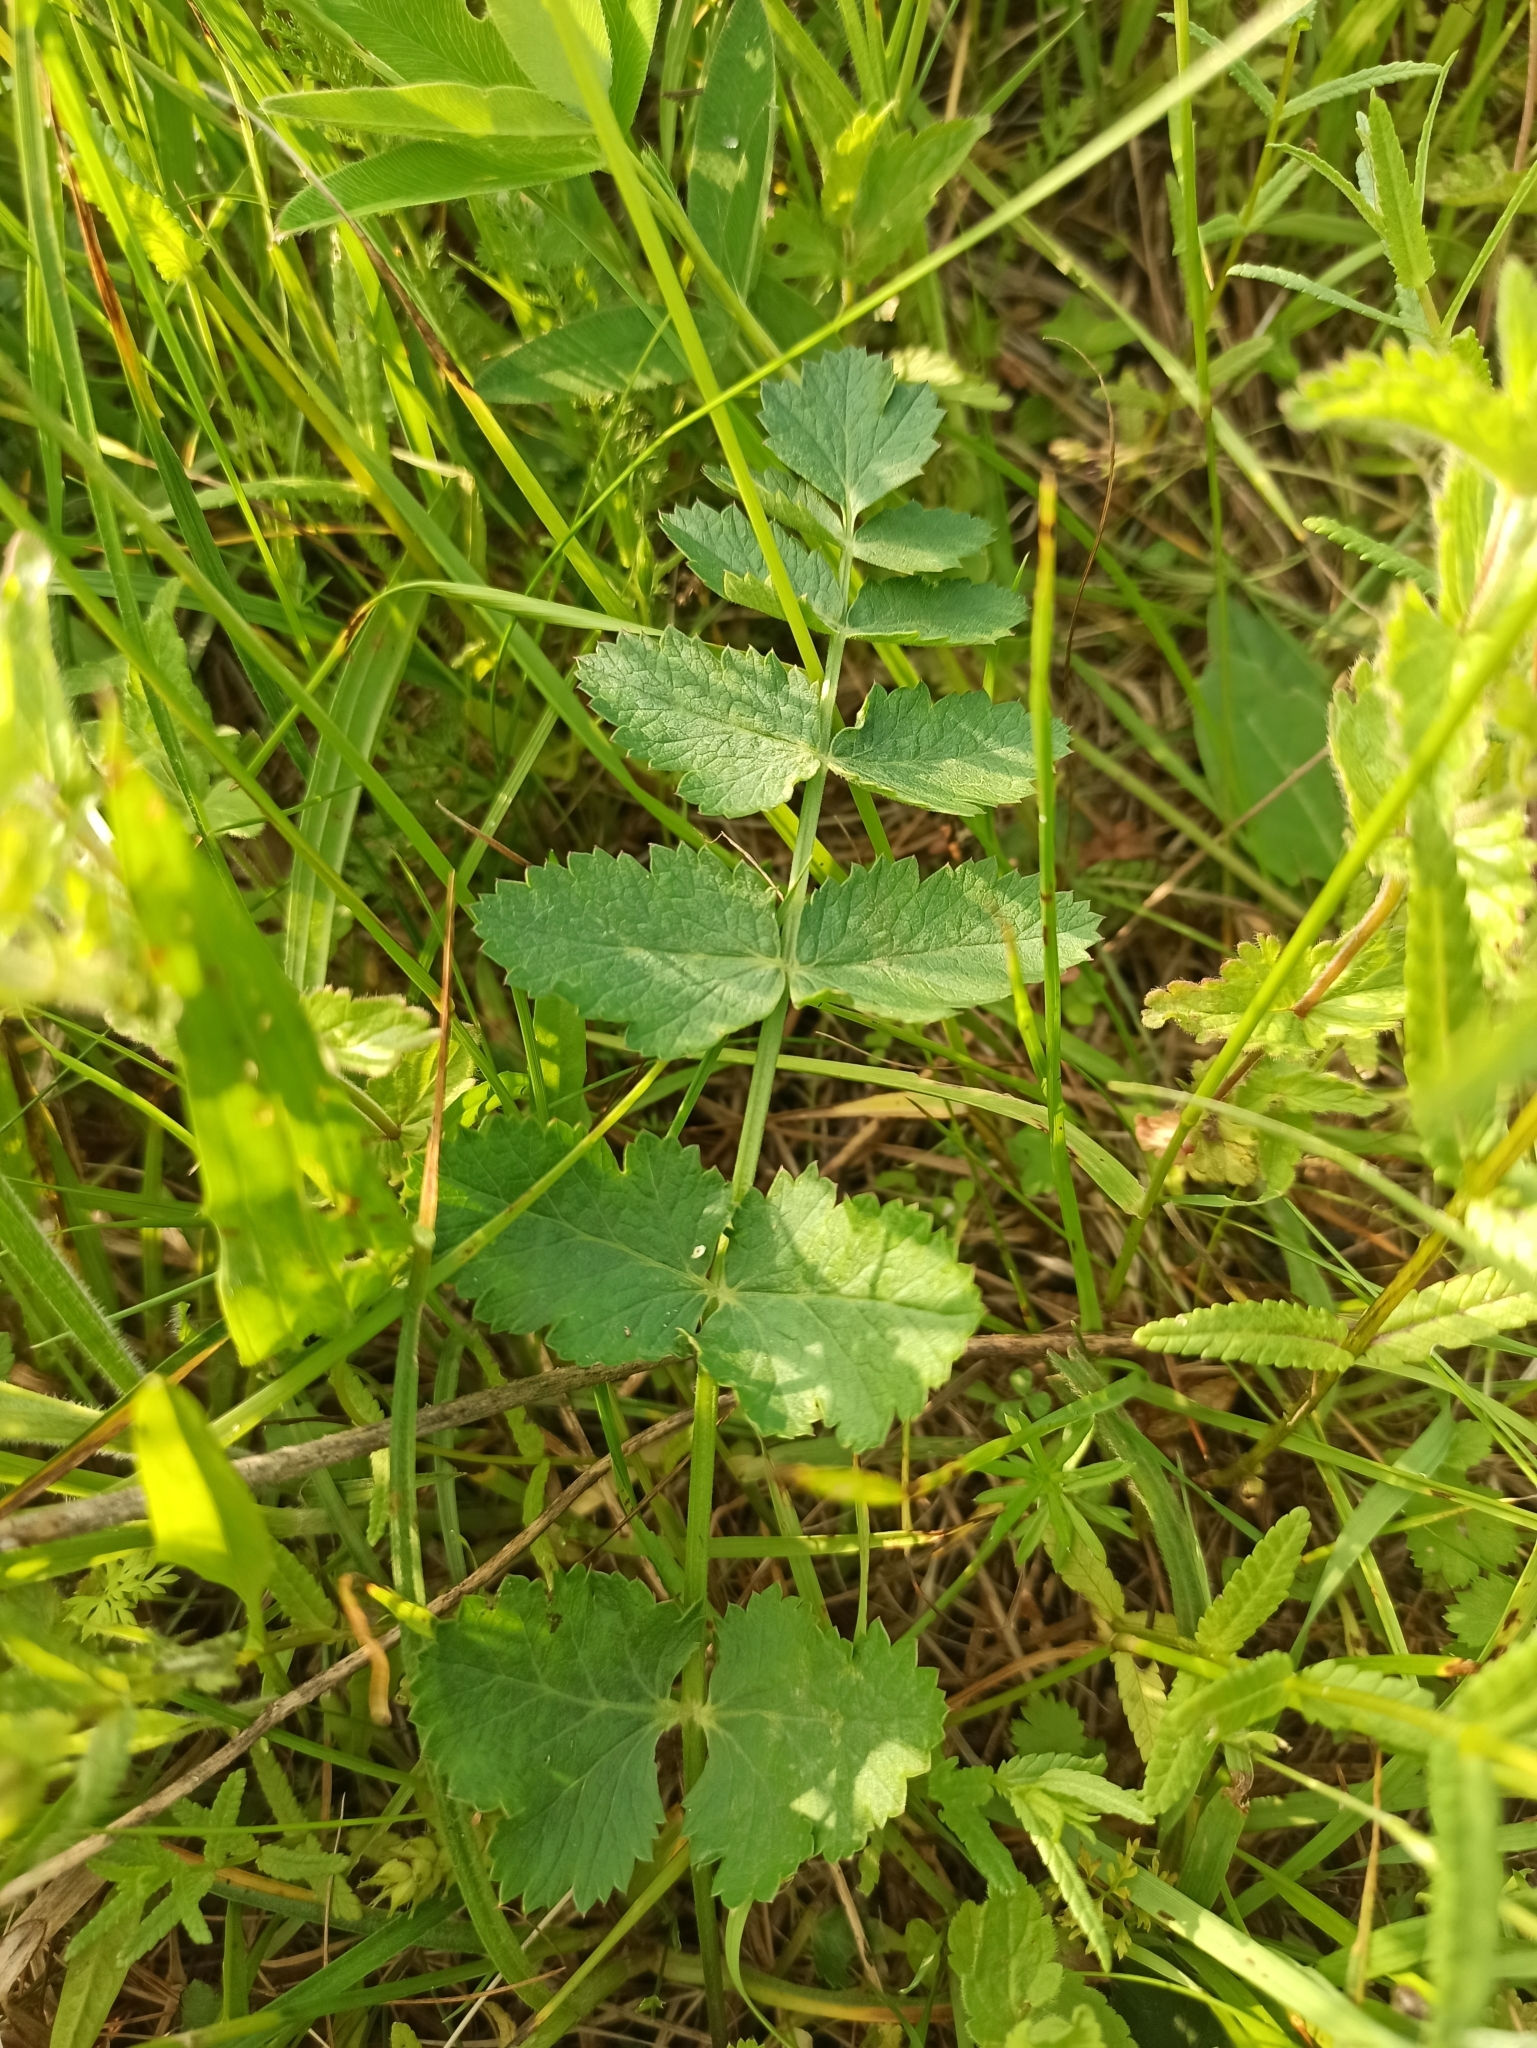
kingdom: Plantae
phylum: Tracheophyta
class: Magnoliopsida
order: Apiales
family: Apiaceae
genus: Pimpinella
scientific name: Pimpinella saxifraga
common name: Burnet-saxifrage
